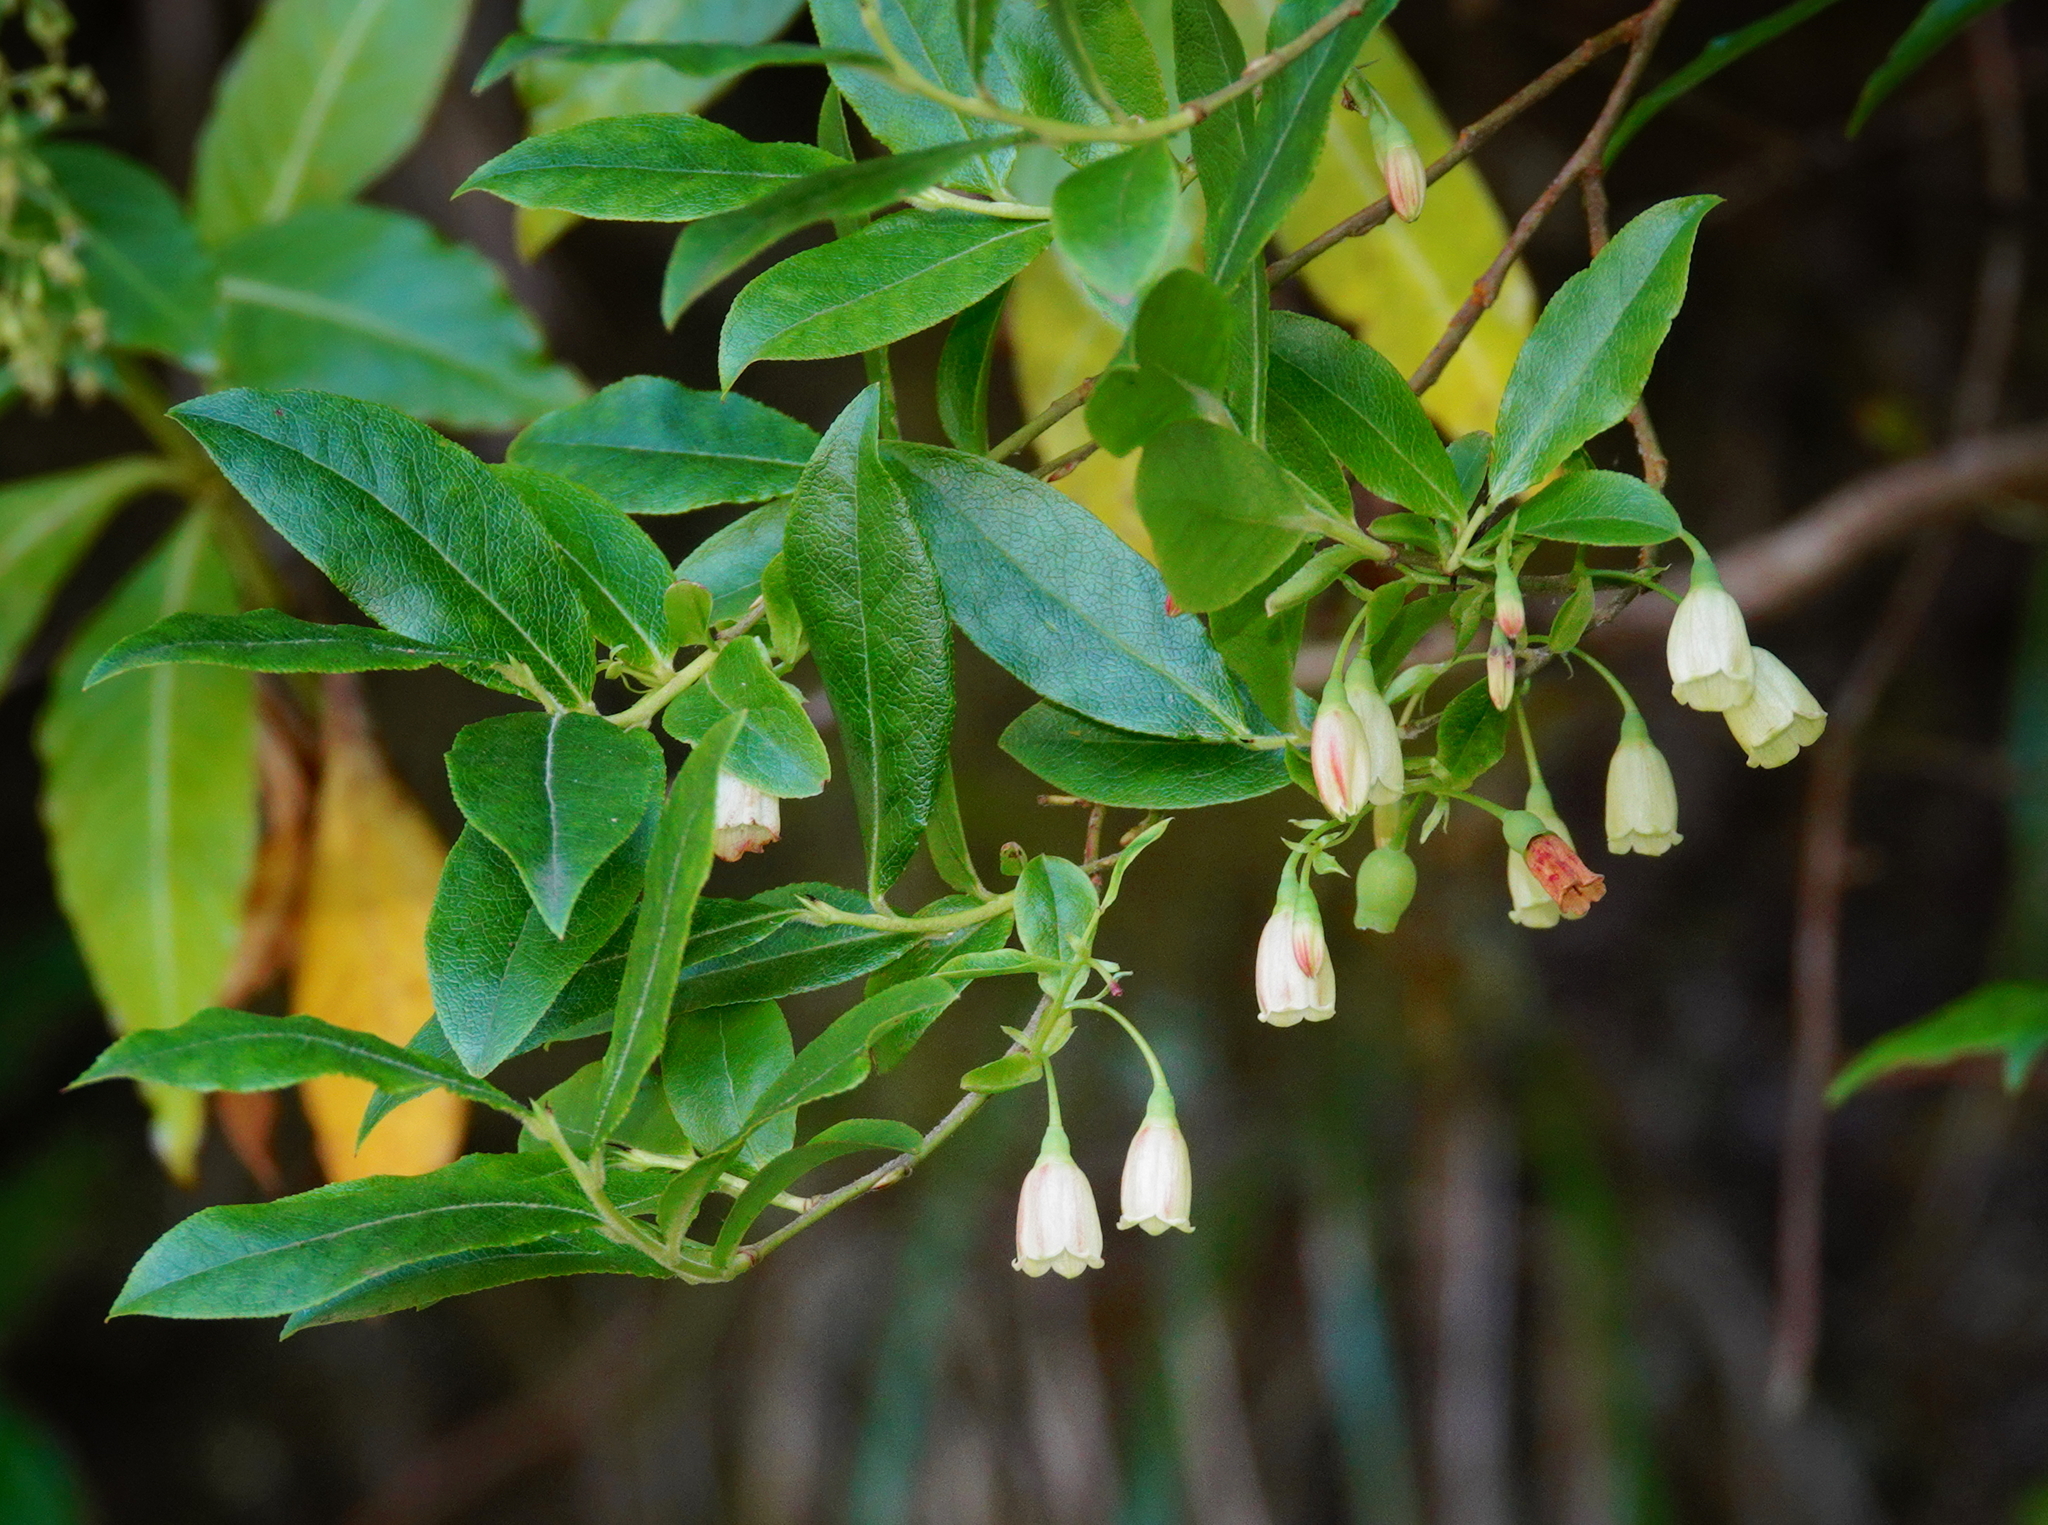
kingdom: Plantae
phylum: Tracheophyta
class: Magnoliopsida
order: Ericales
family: Ericaceae
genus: Vaccinium
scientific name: Vaccinium padifolium
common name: Madeiran blueberry
